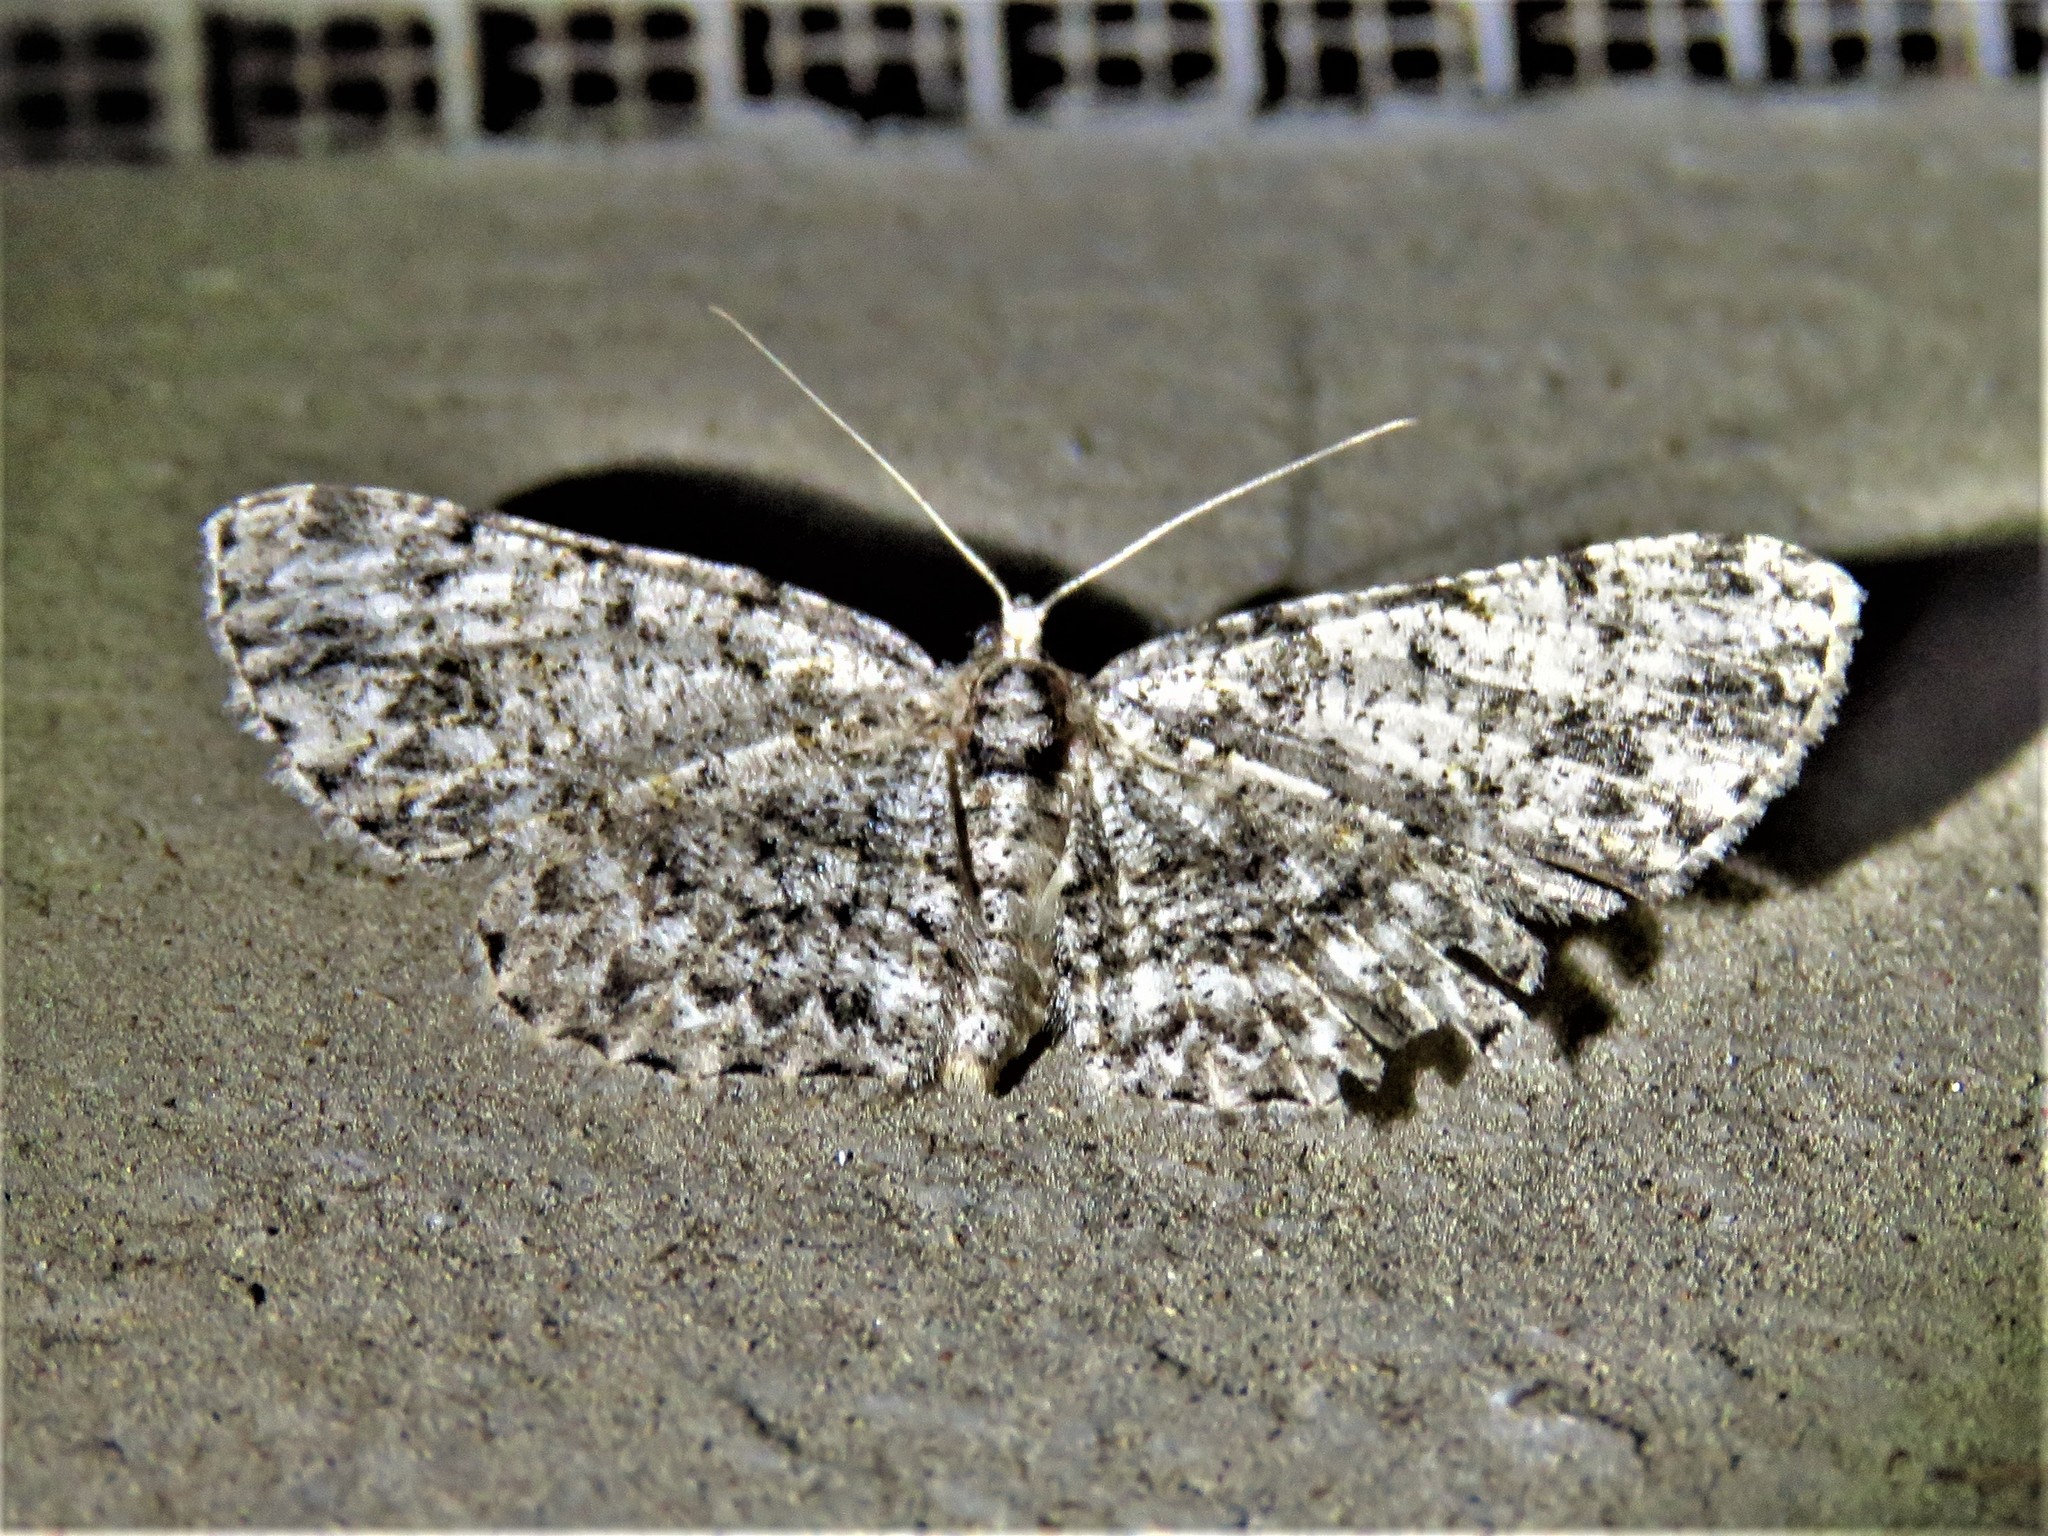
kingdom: Animalia
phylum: Arthropoda
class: Insecta
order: Lepidoptera
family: Geometridae
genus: Protoboarmia
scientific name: Protoboarmia porcelaria
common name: Porcelain gray
